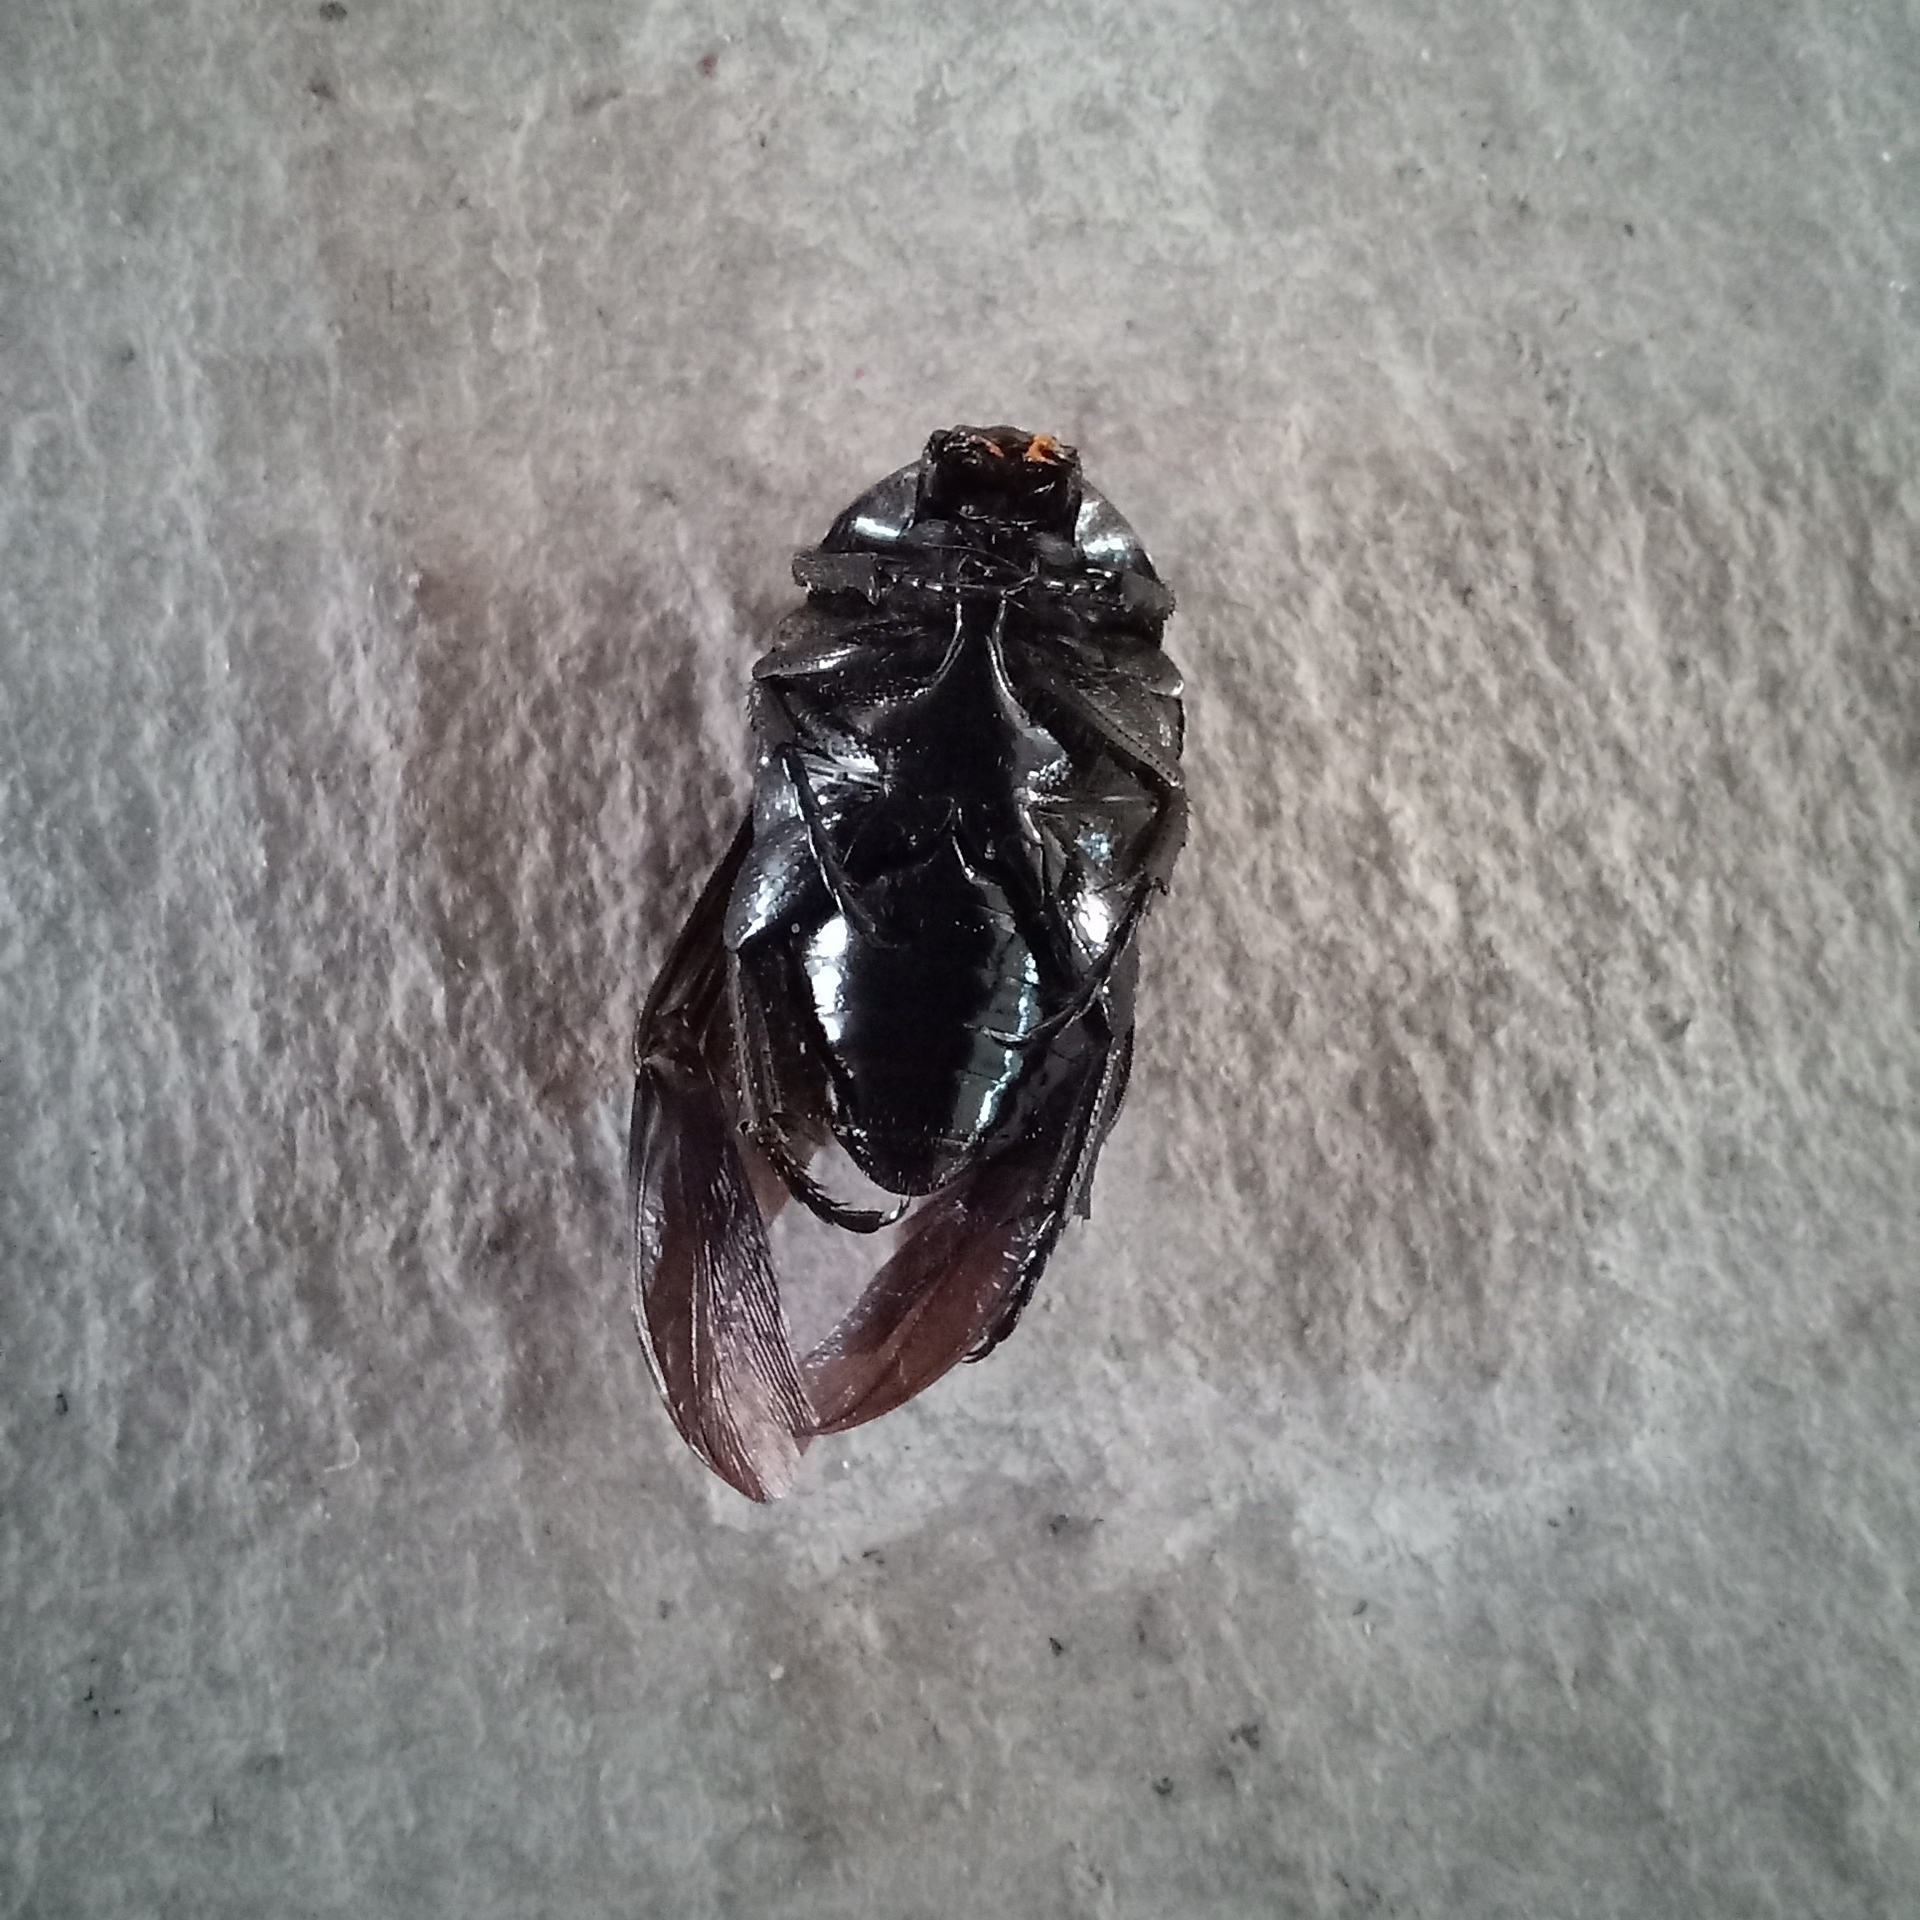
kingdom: Animalia
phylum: Arthropoda
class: Insecta
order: Coleoptera
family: Scarabaeidae
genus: Hologymnetis
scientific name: Hologymnetis cinerea
